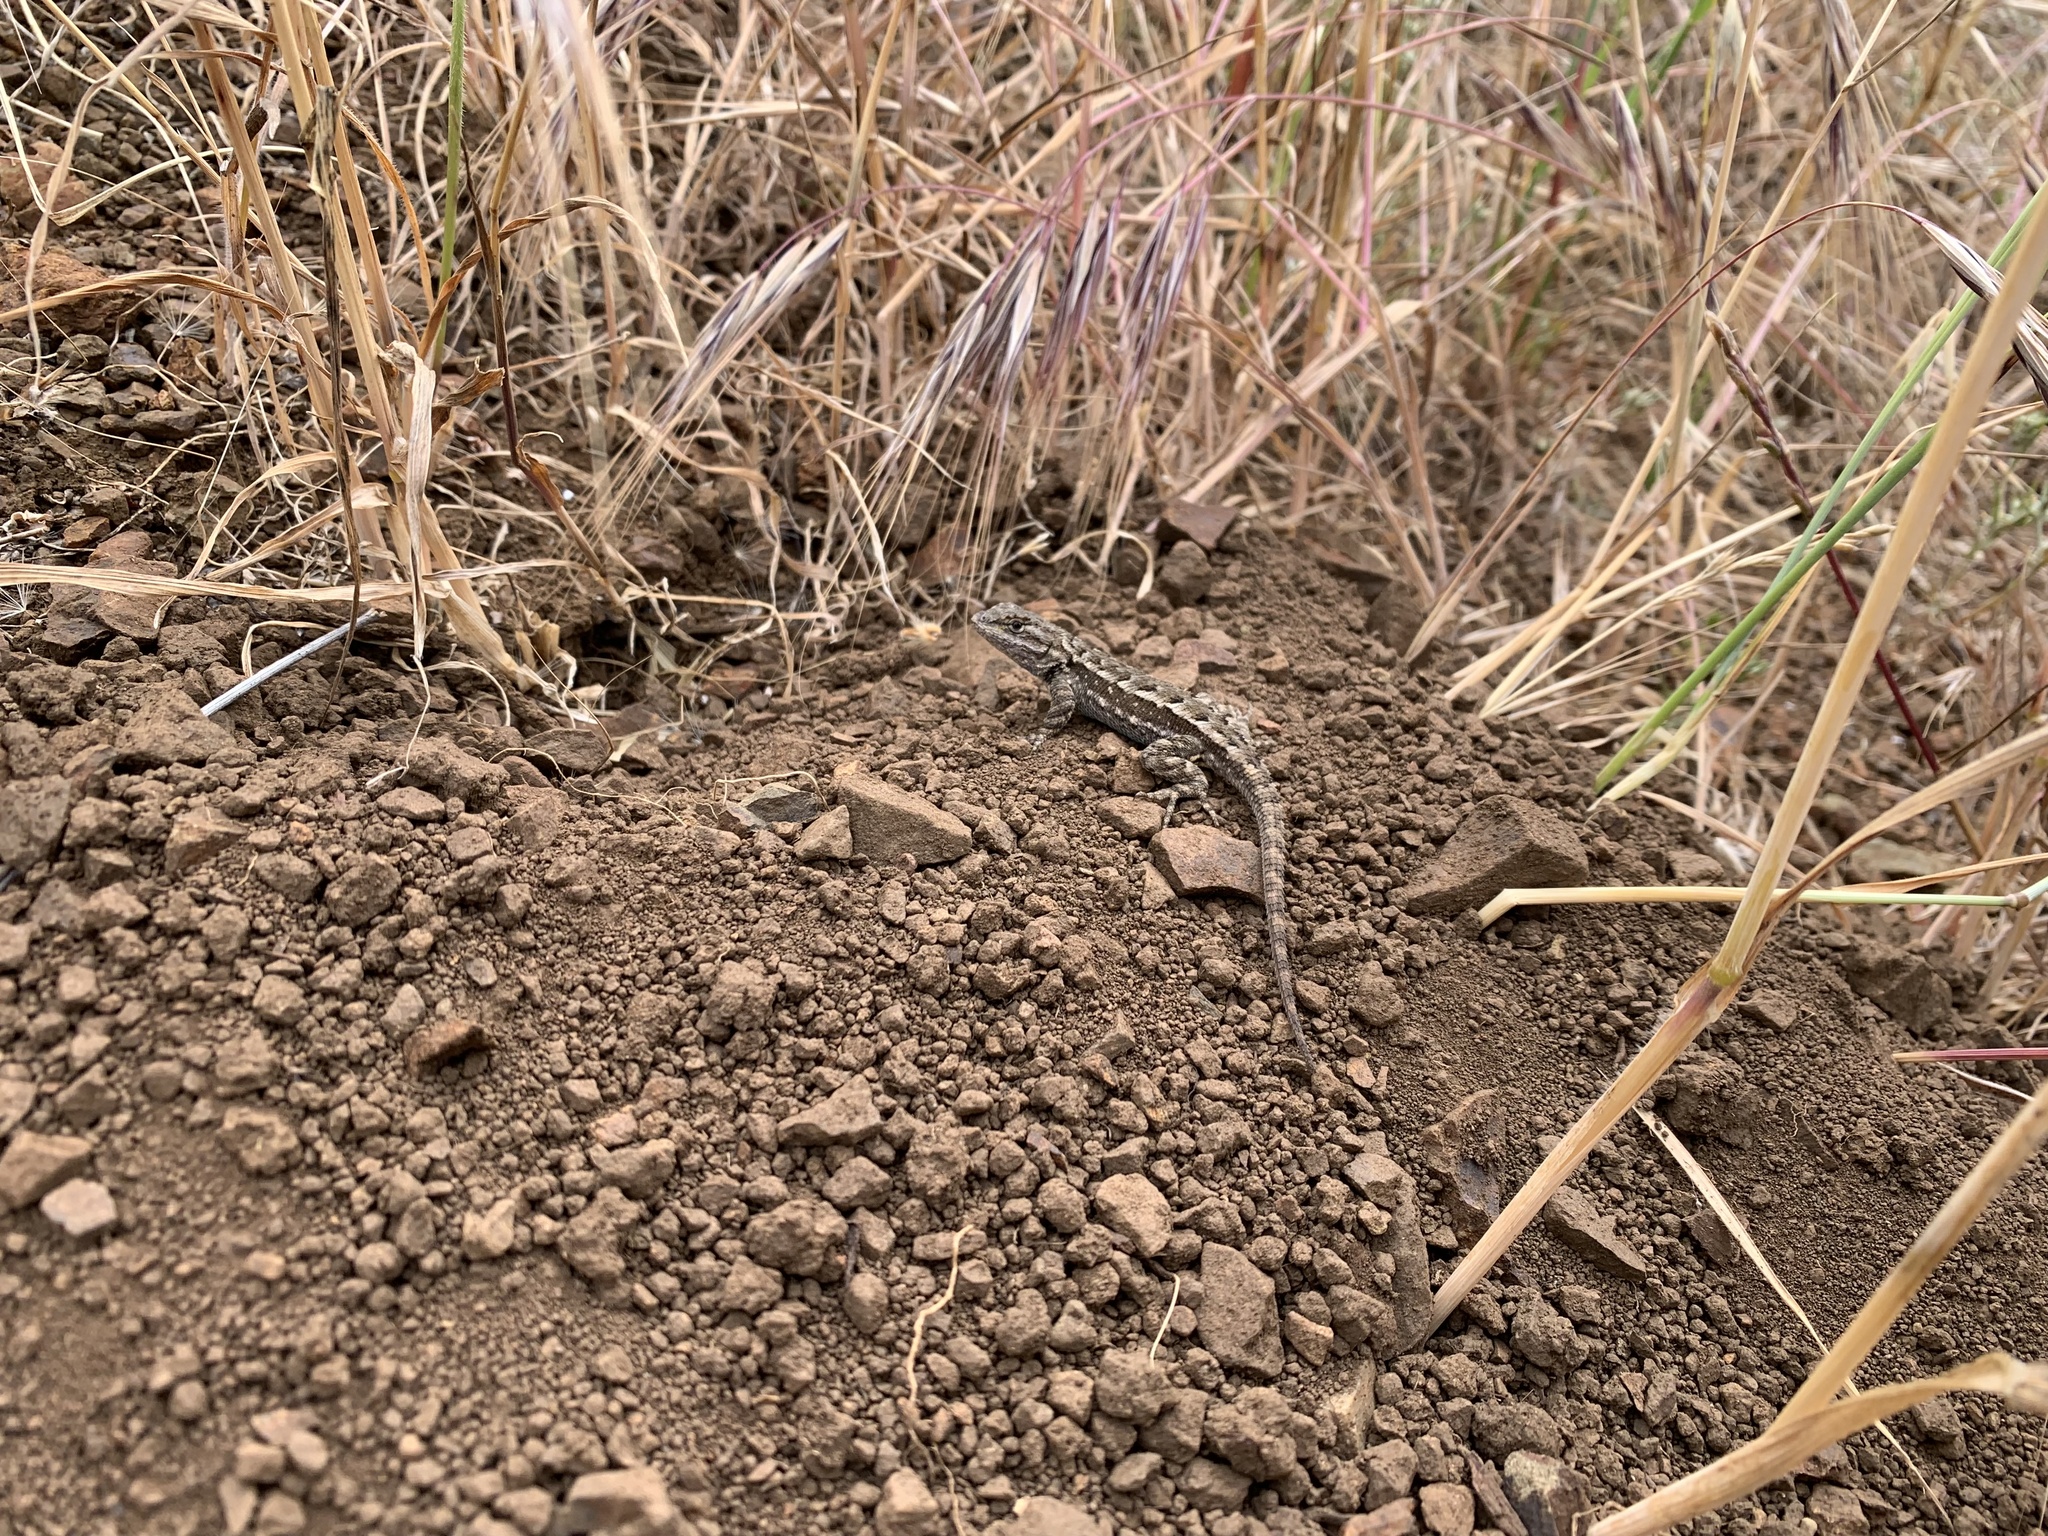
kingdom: Animalia
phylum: Chordata
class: Squamata
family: Phrynosomatidae
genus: Sceloporus
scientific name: Sceloporus occidentalis
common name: Western fence lizard
